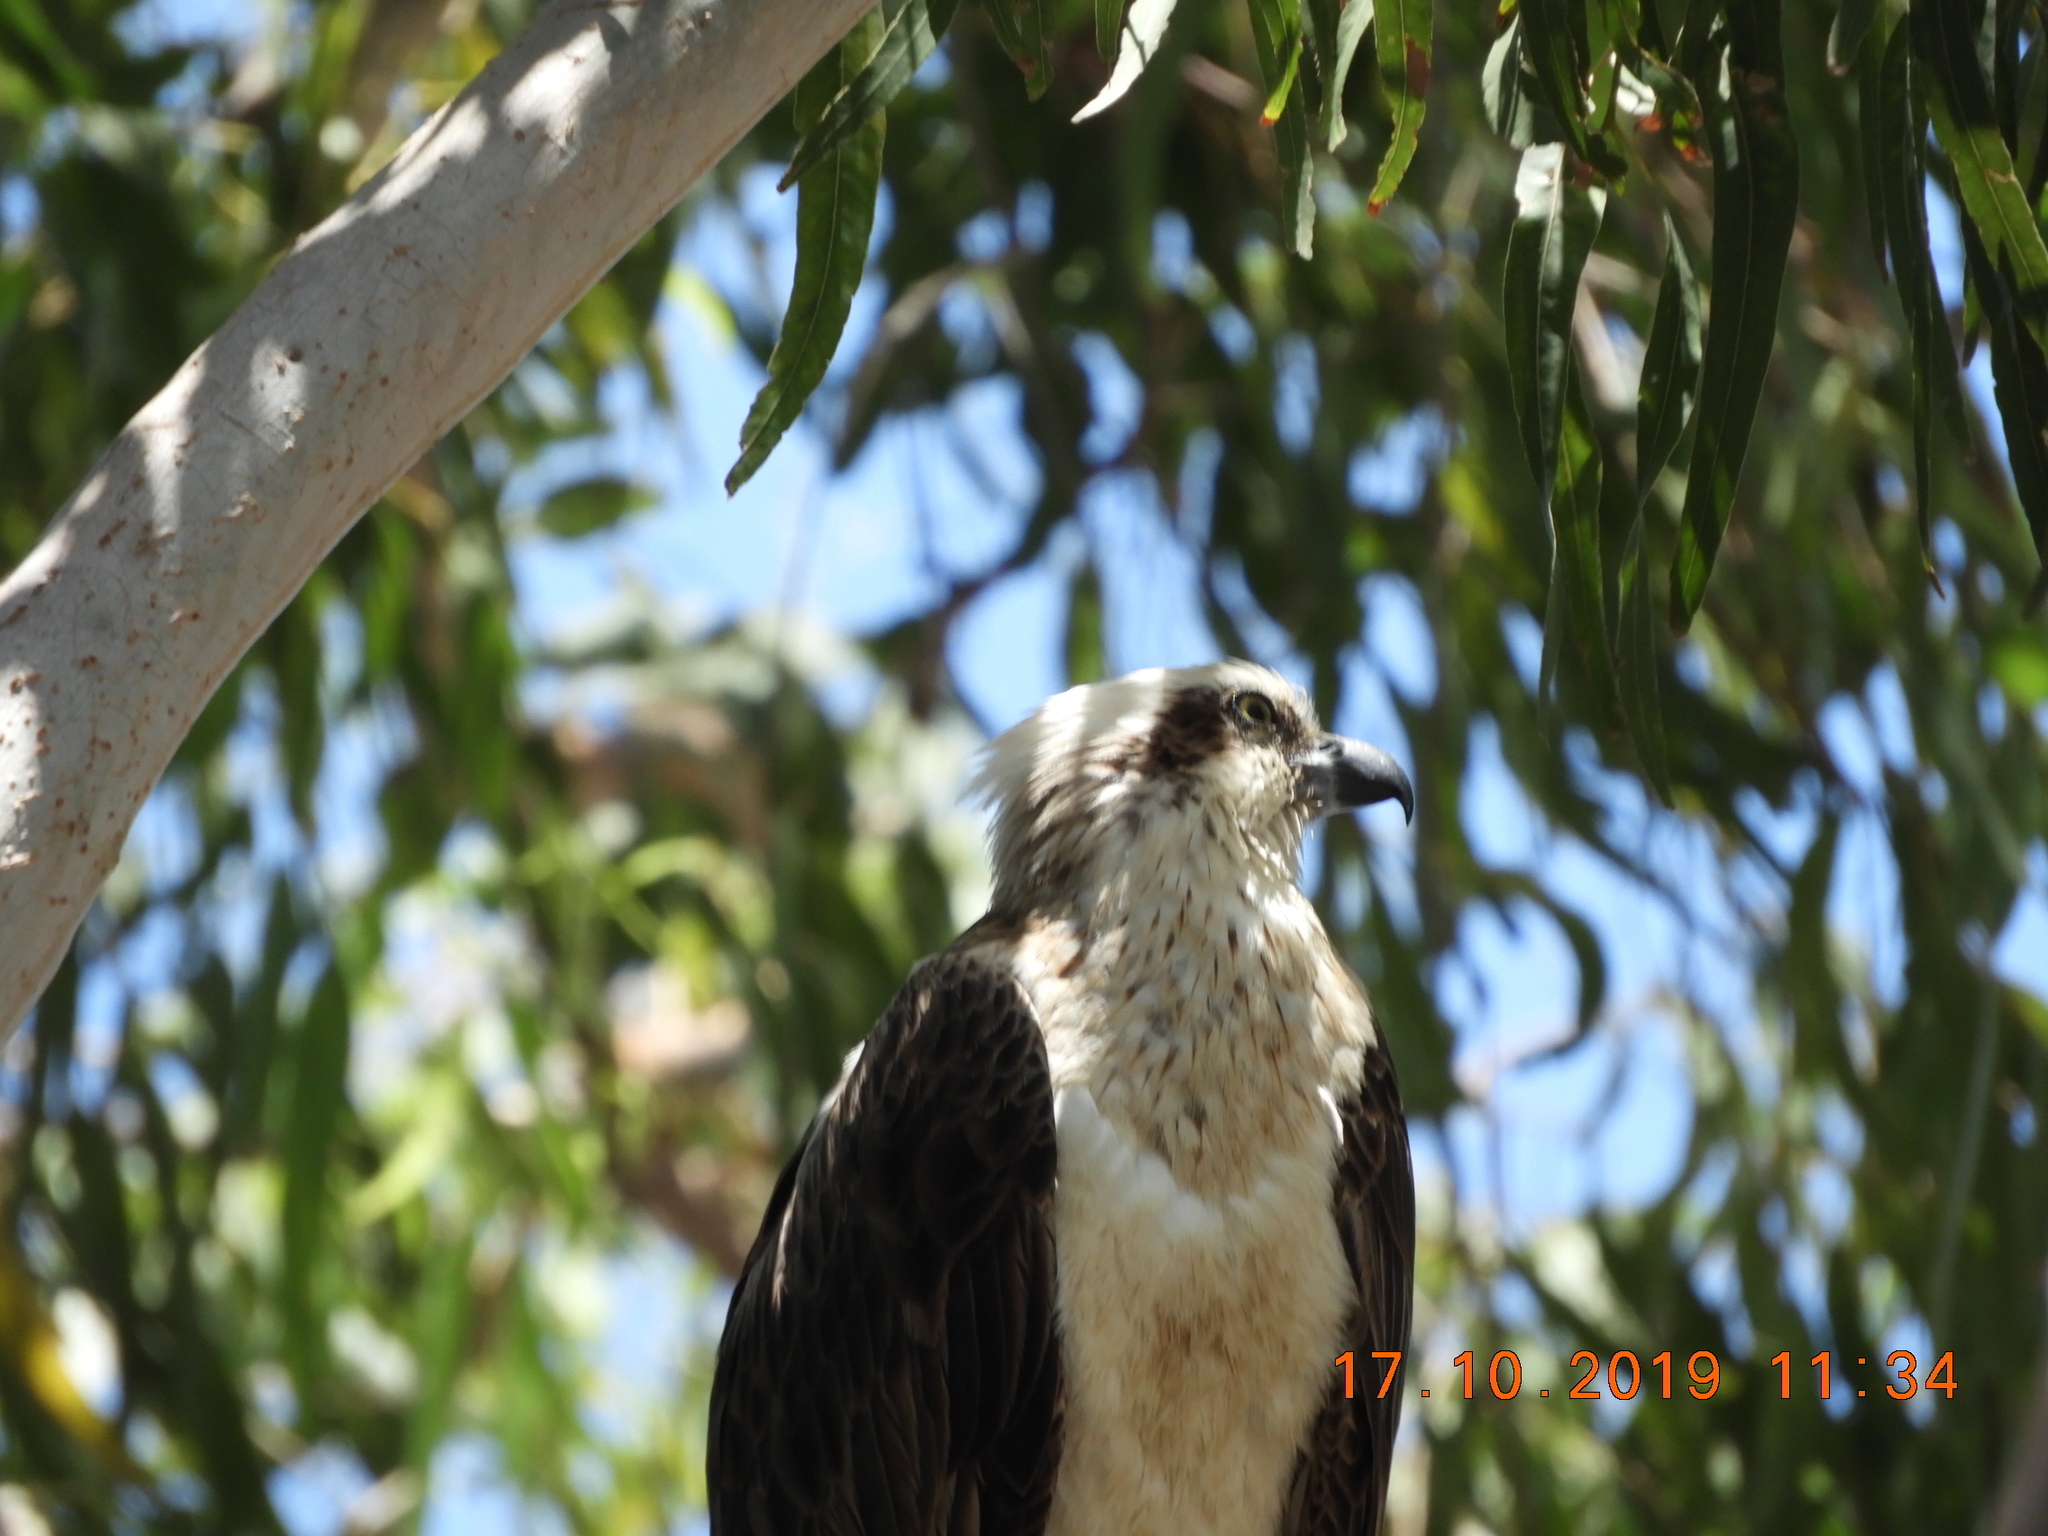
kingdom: Animalia
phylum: Chordata
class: Aves
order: Accipitriformes
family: Pandionidae
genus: Pandion
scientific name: Pandion haliaetus
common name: Osprey
